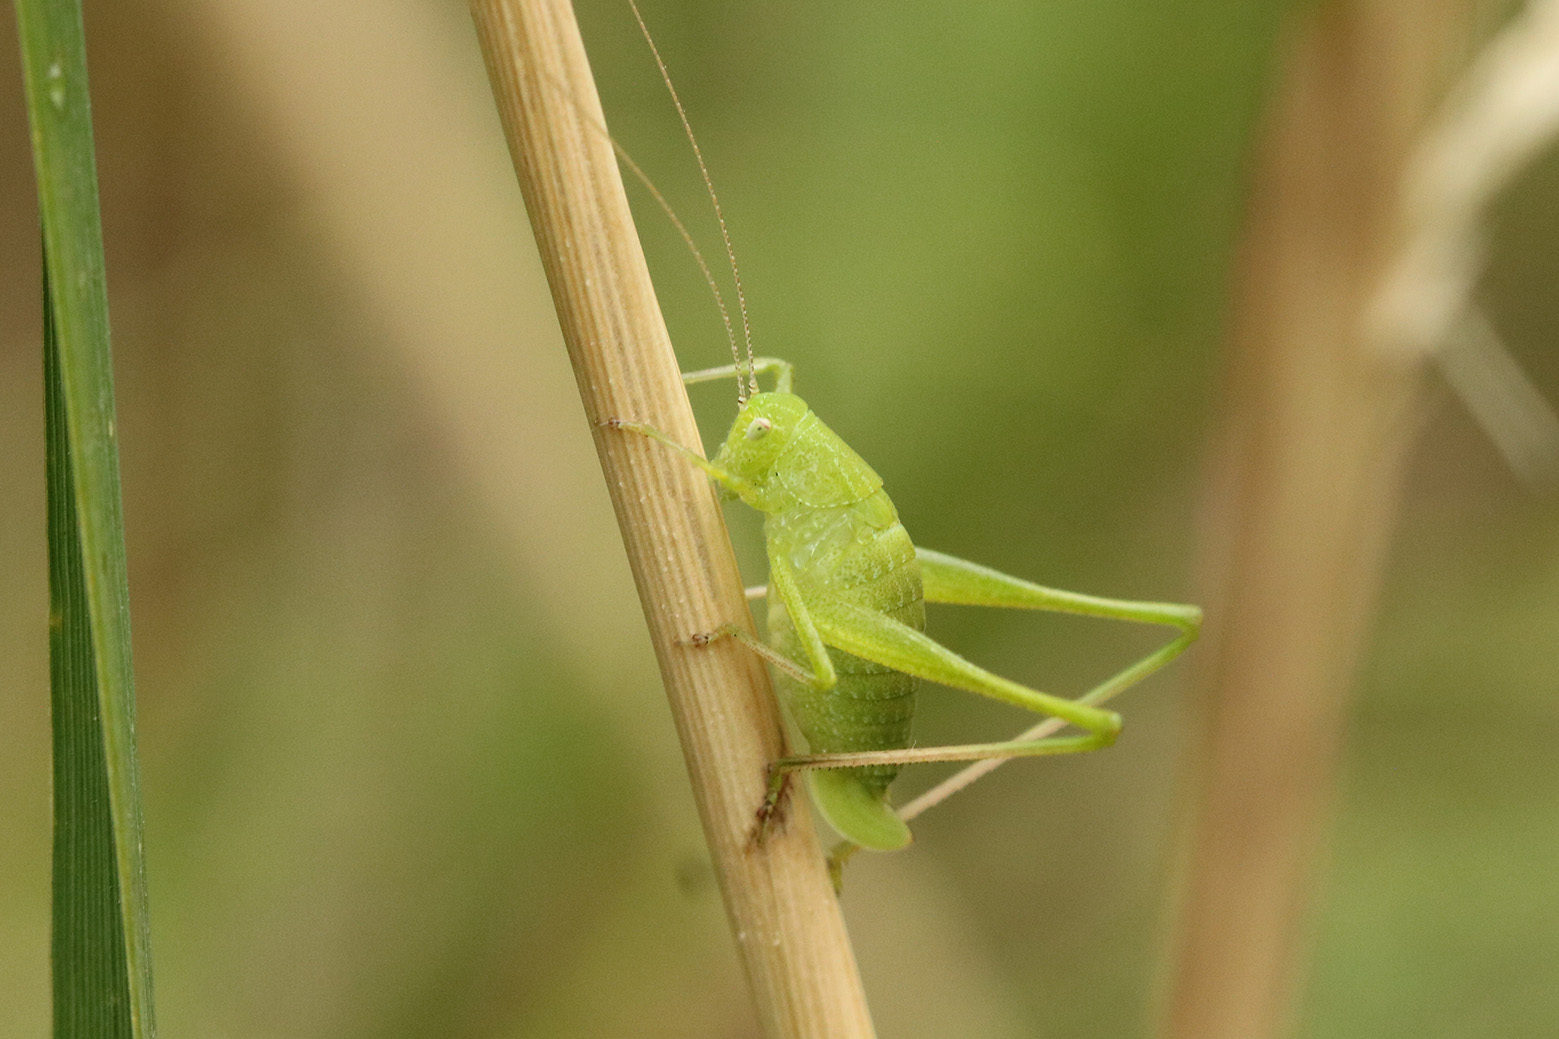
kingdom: Animalia
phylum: Arthropoda
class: Insecta
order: Orthoptera
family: Tettigoniidae
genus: Anisophya
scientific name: Anisophya
